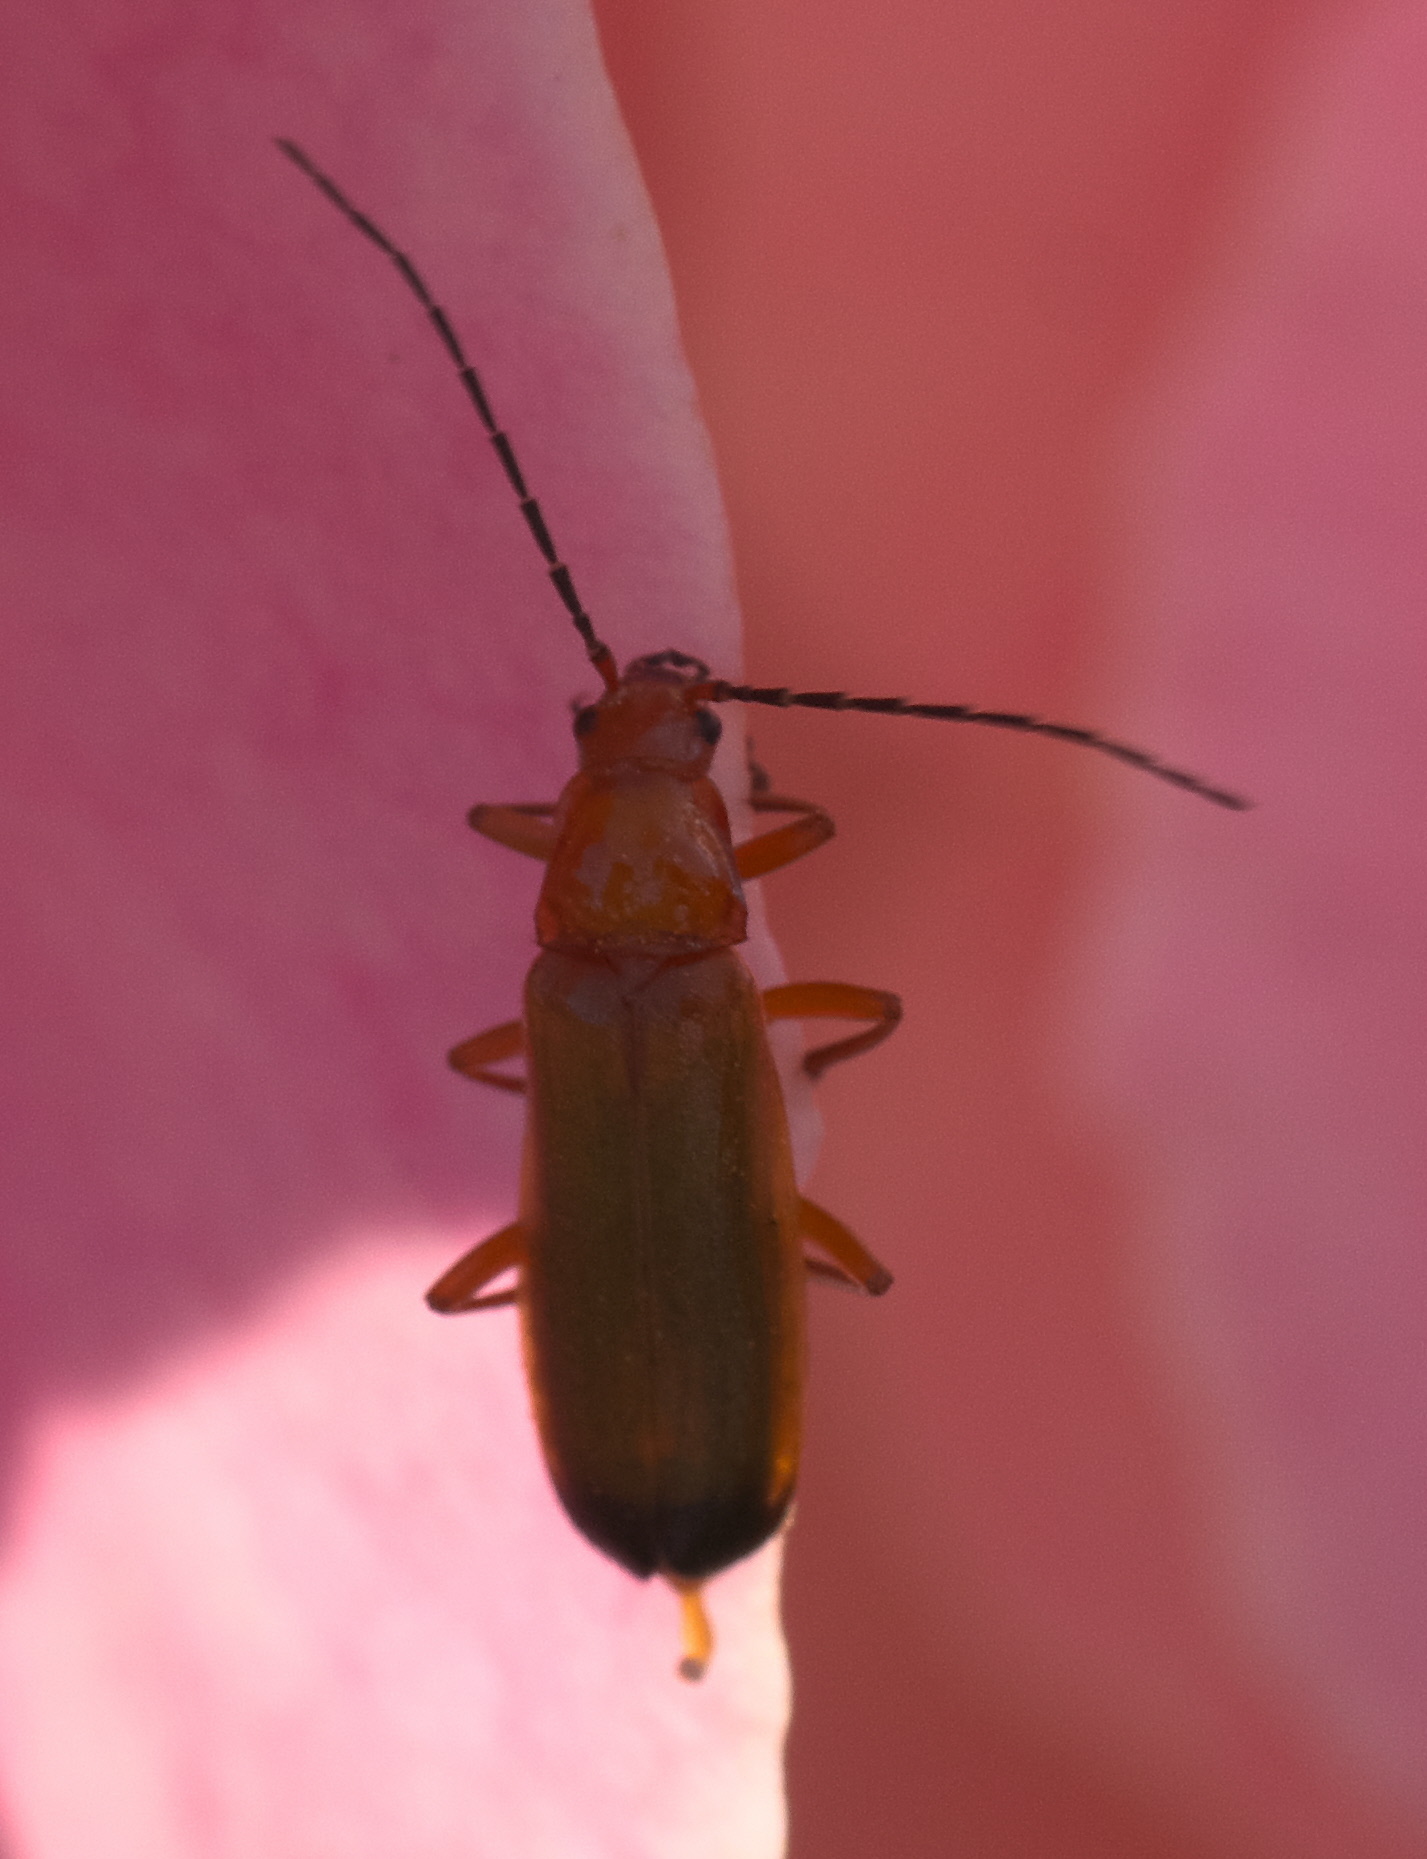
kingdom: Animalia
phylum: Arthropoda
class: Insecta
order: Coleoptera
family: Cantharidae
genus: Rhagonycha
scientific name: Rhagonycha fulva
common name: Common red soldier beetle
